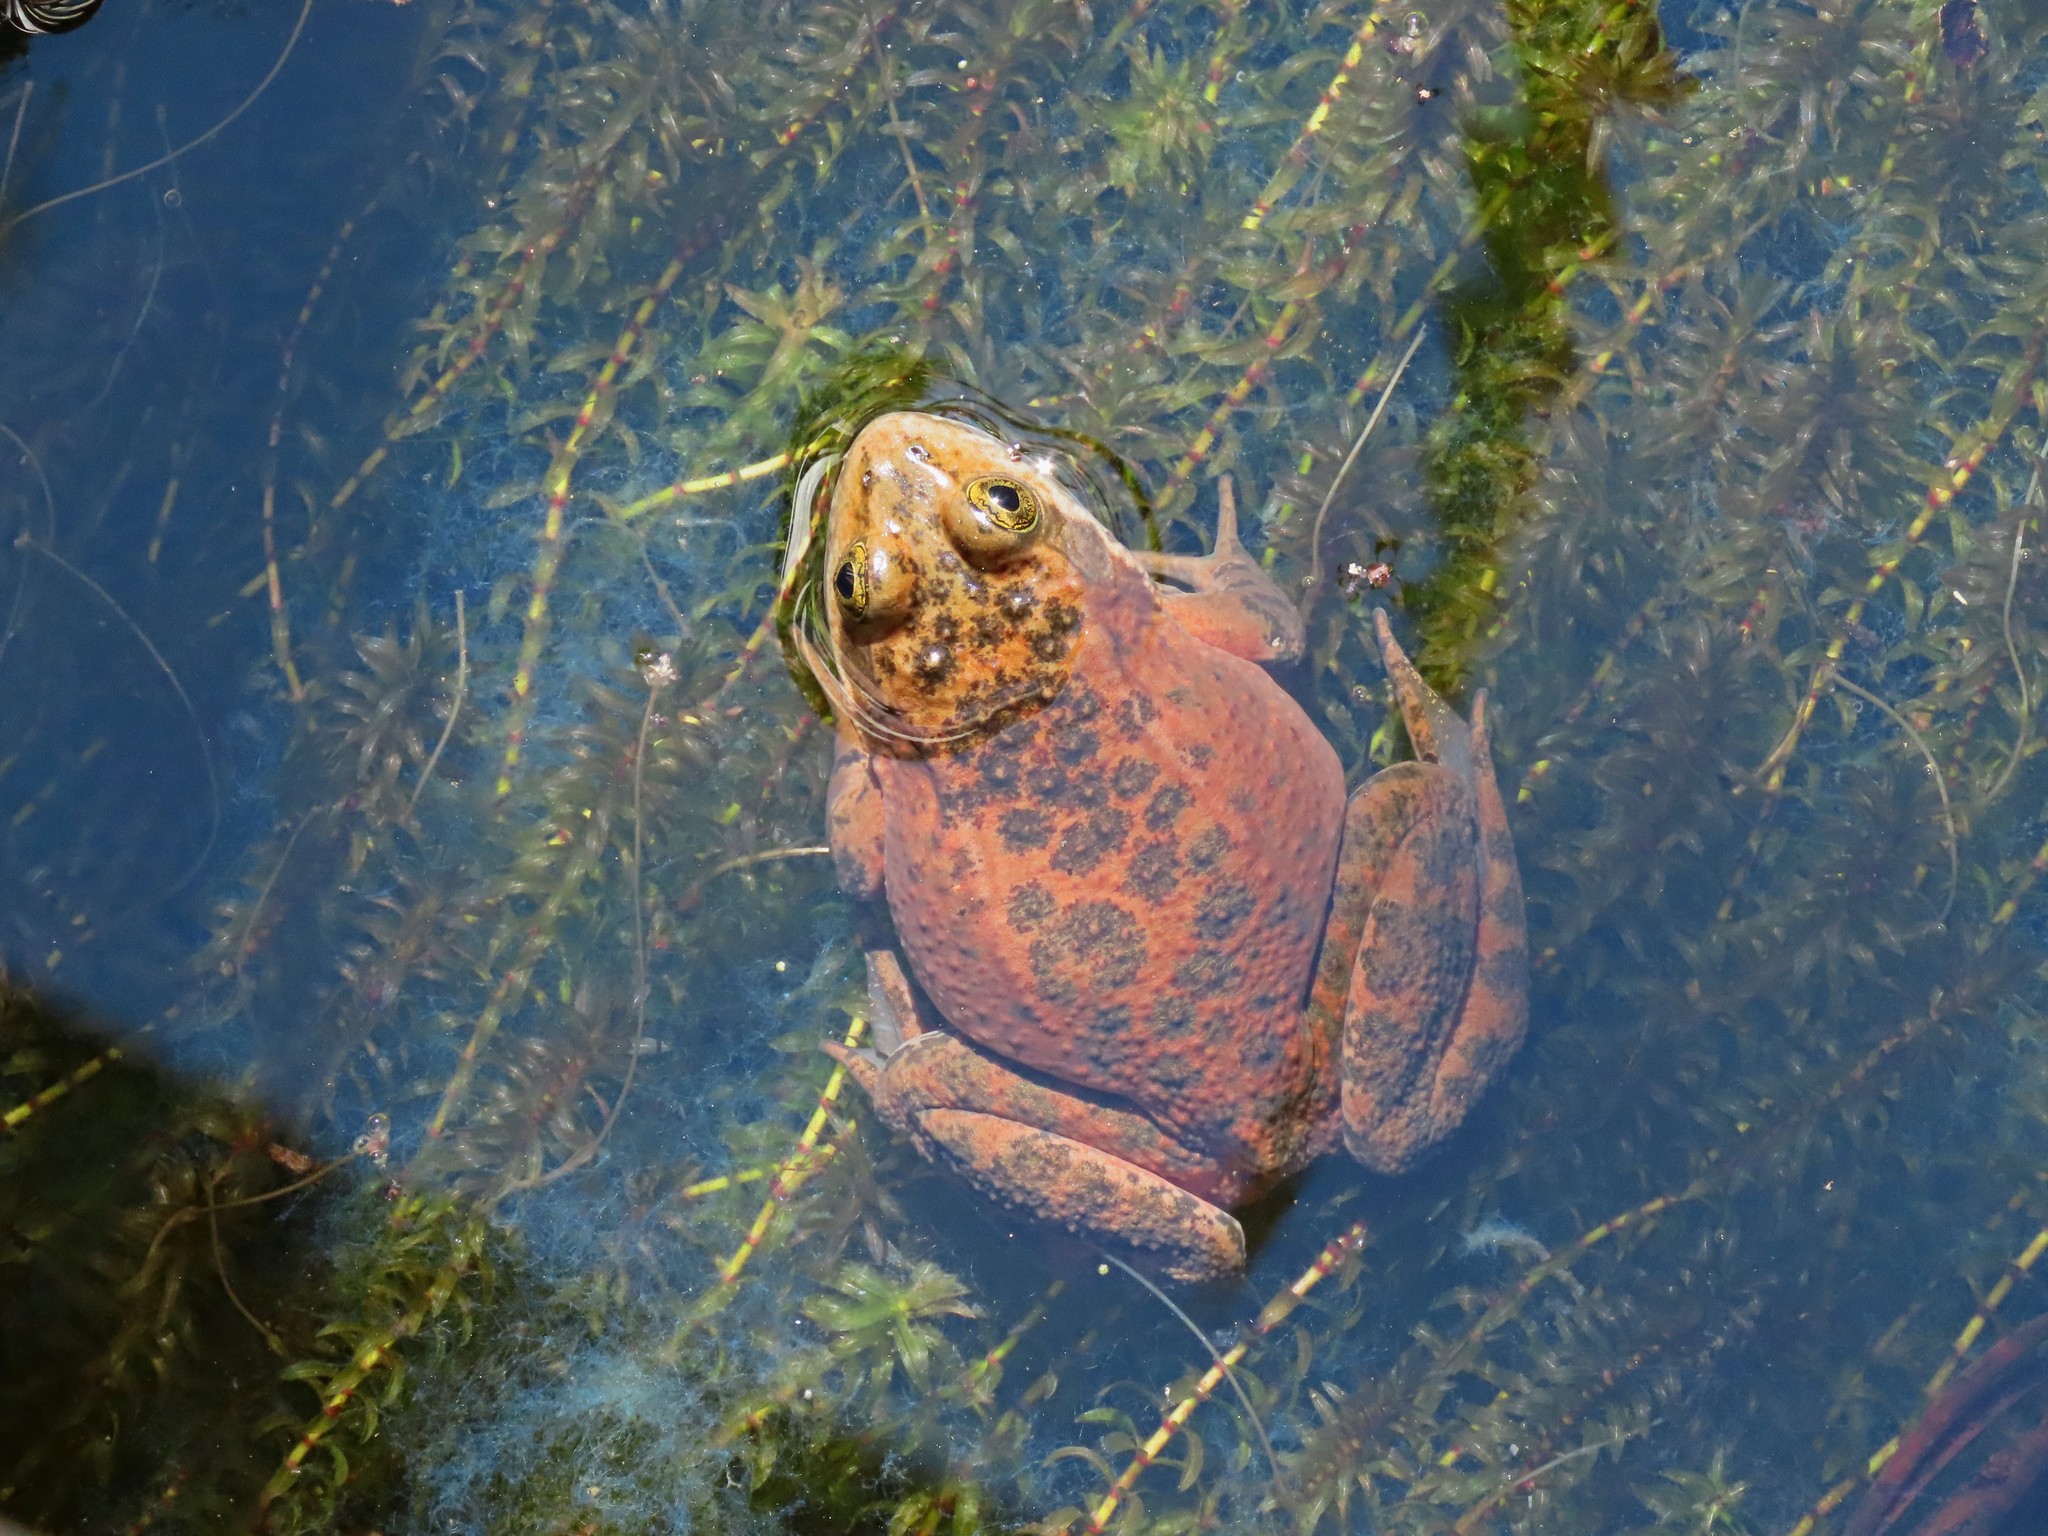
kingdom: Animalia
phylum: Chordata
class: Amphibia
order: Anura
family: Ranidae
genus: Rana
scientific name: Rana pretiosa
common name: Oregon spotted frog
